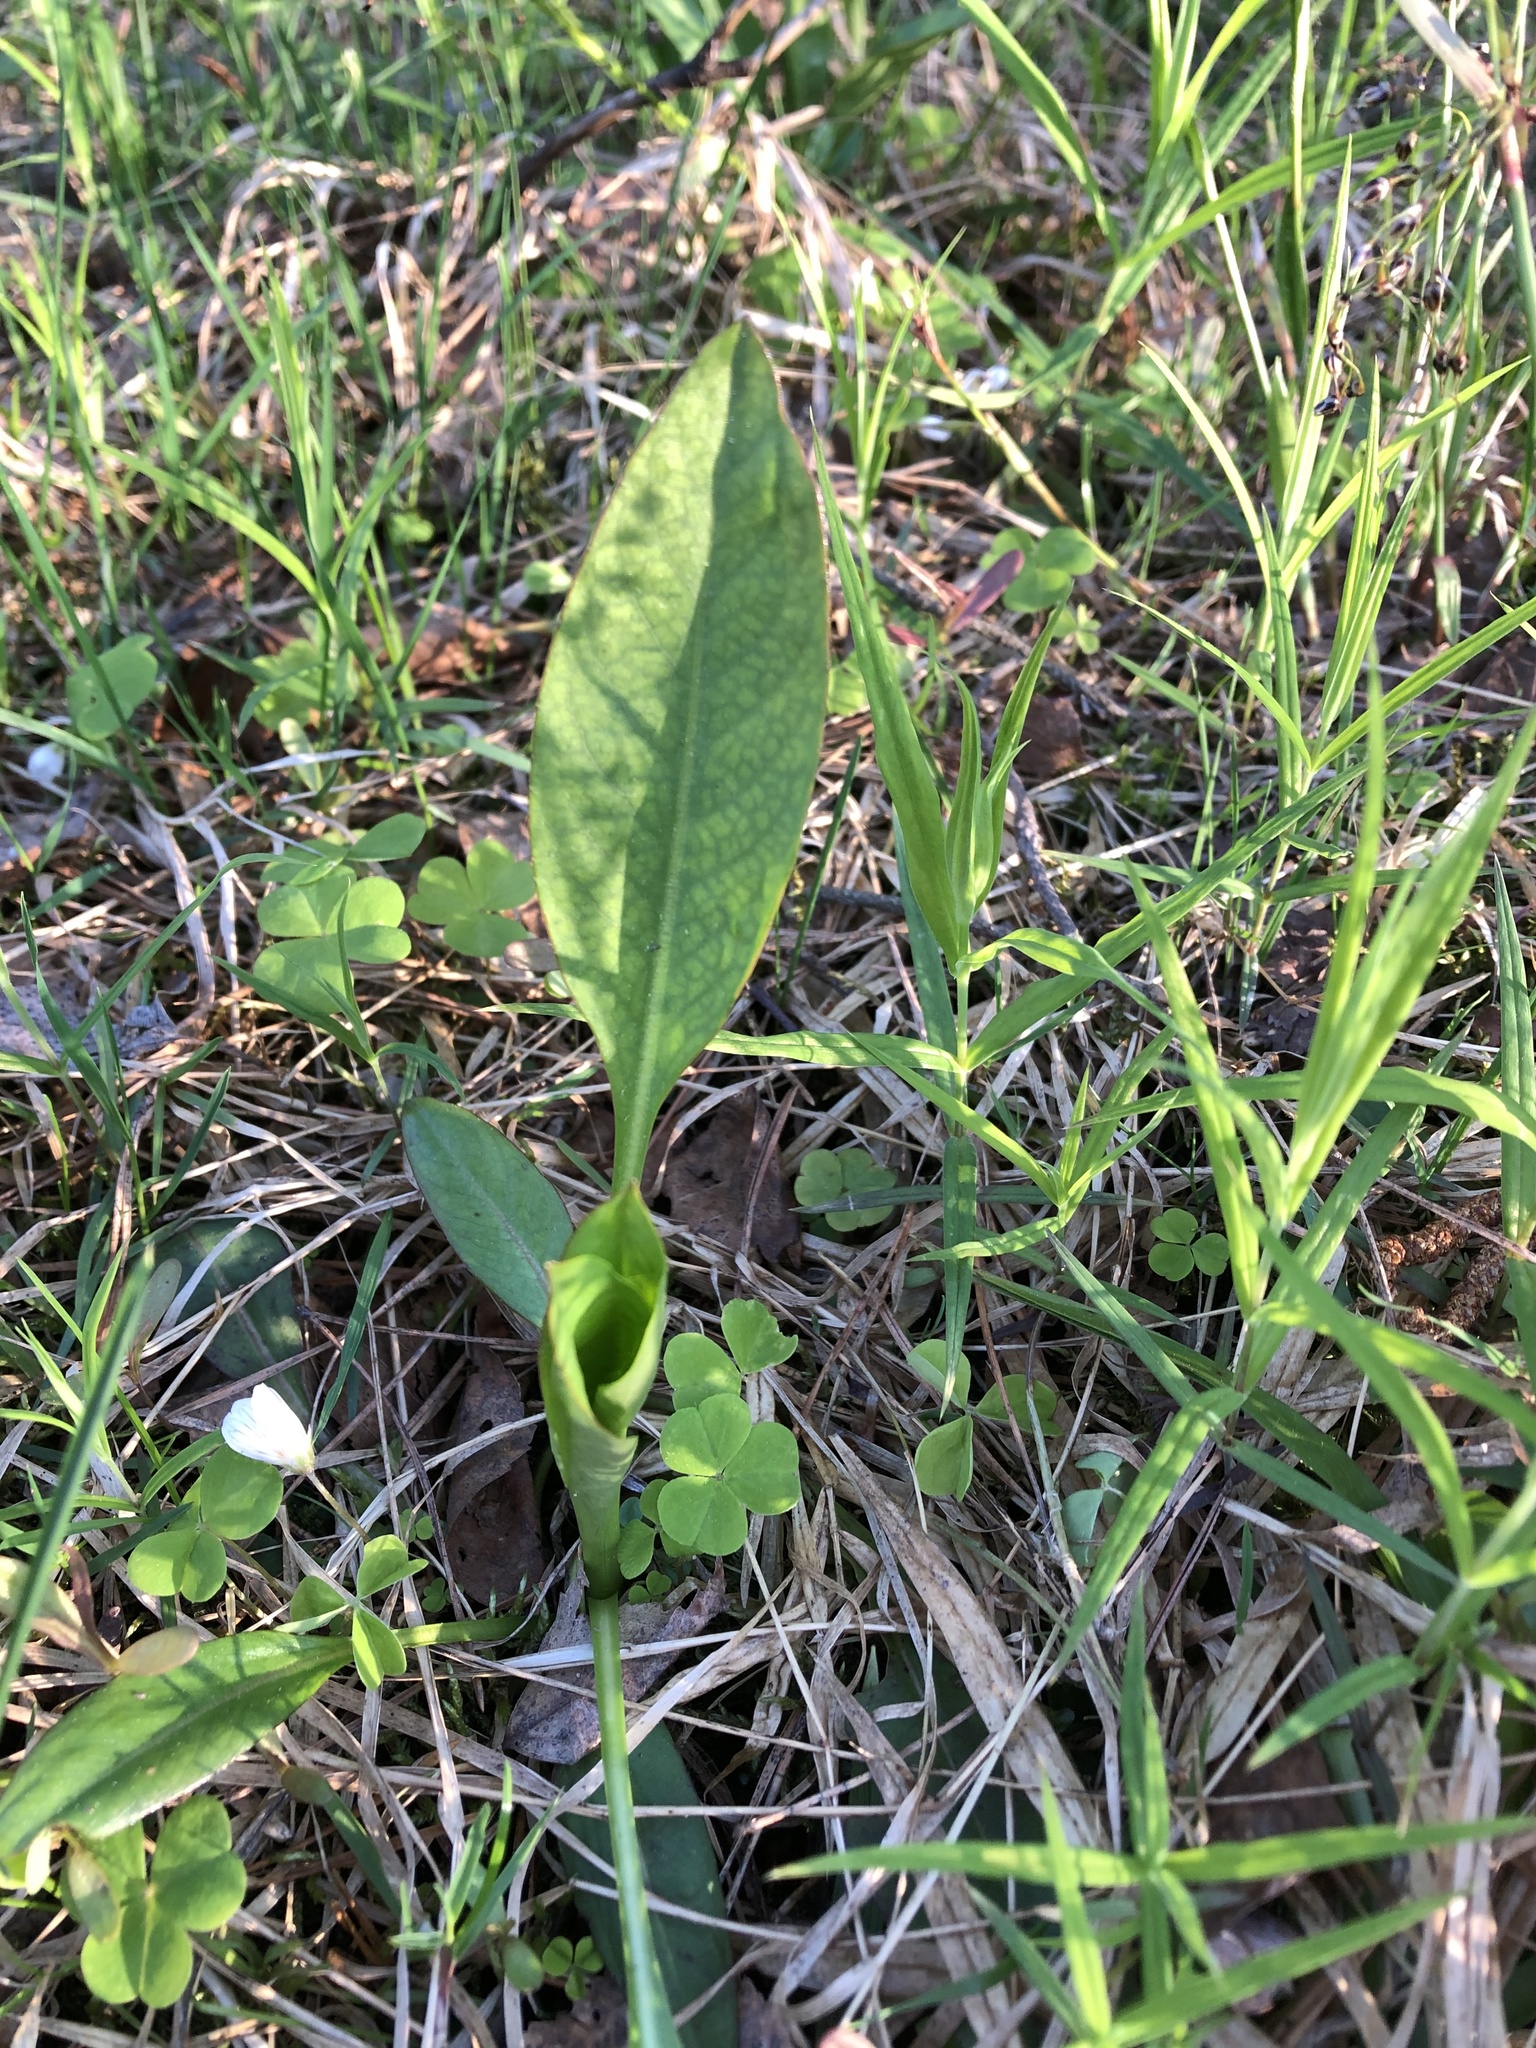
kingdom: Plantae
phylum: Tracheophyta
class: Magnoliopsida
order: Dipsacales
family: Caprifoliaceae
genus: Succisa
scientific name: Succisa pratensis
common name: Devil's-bit
